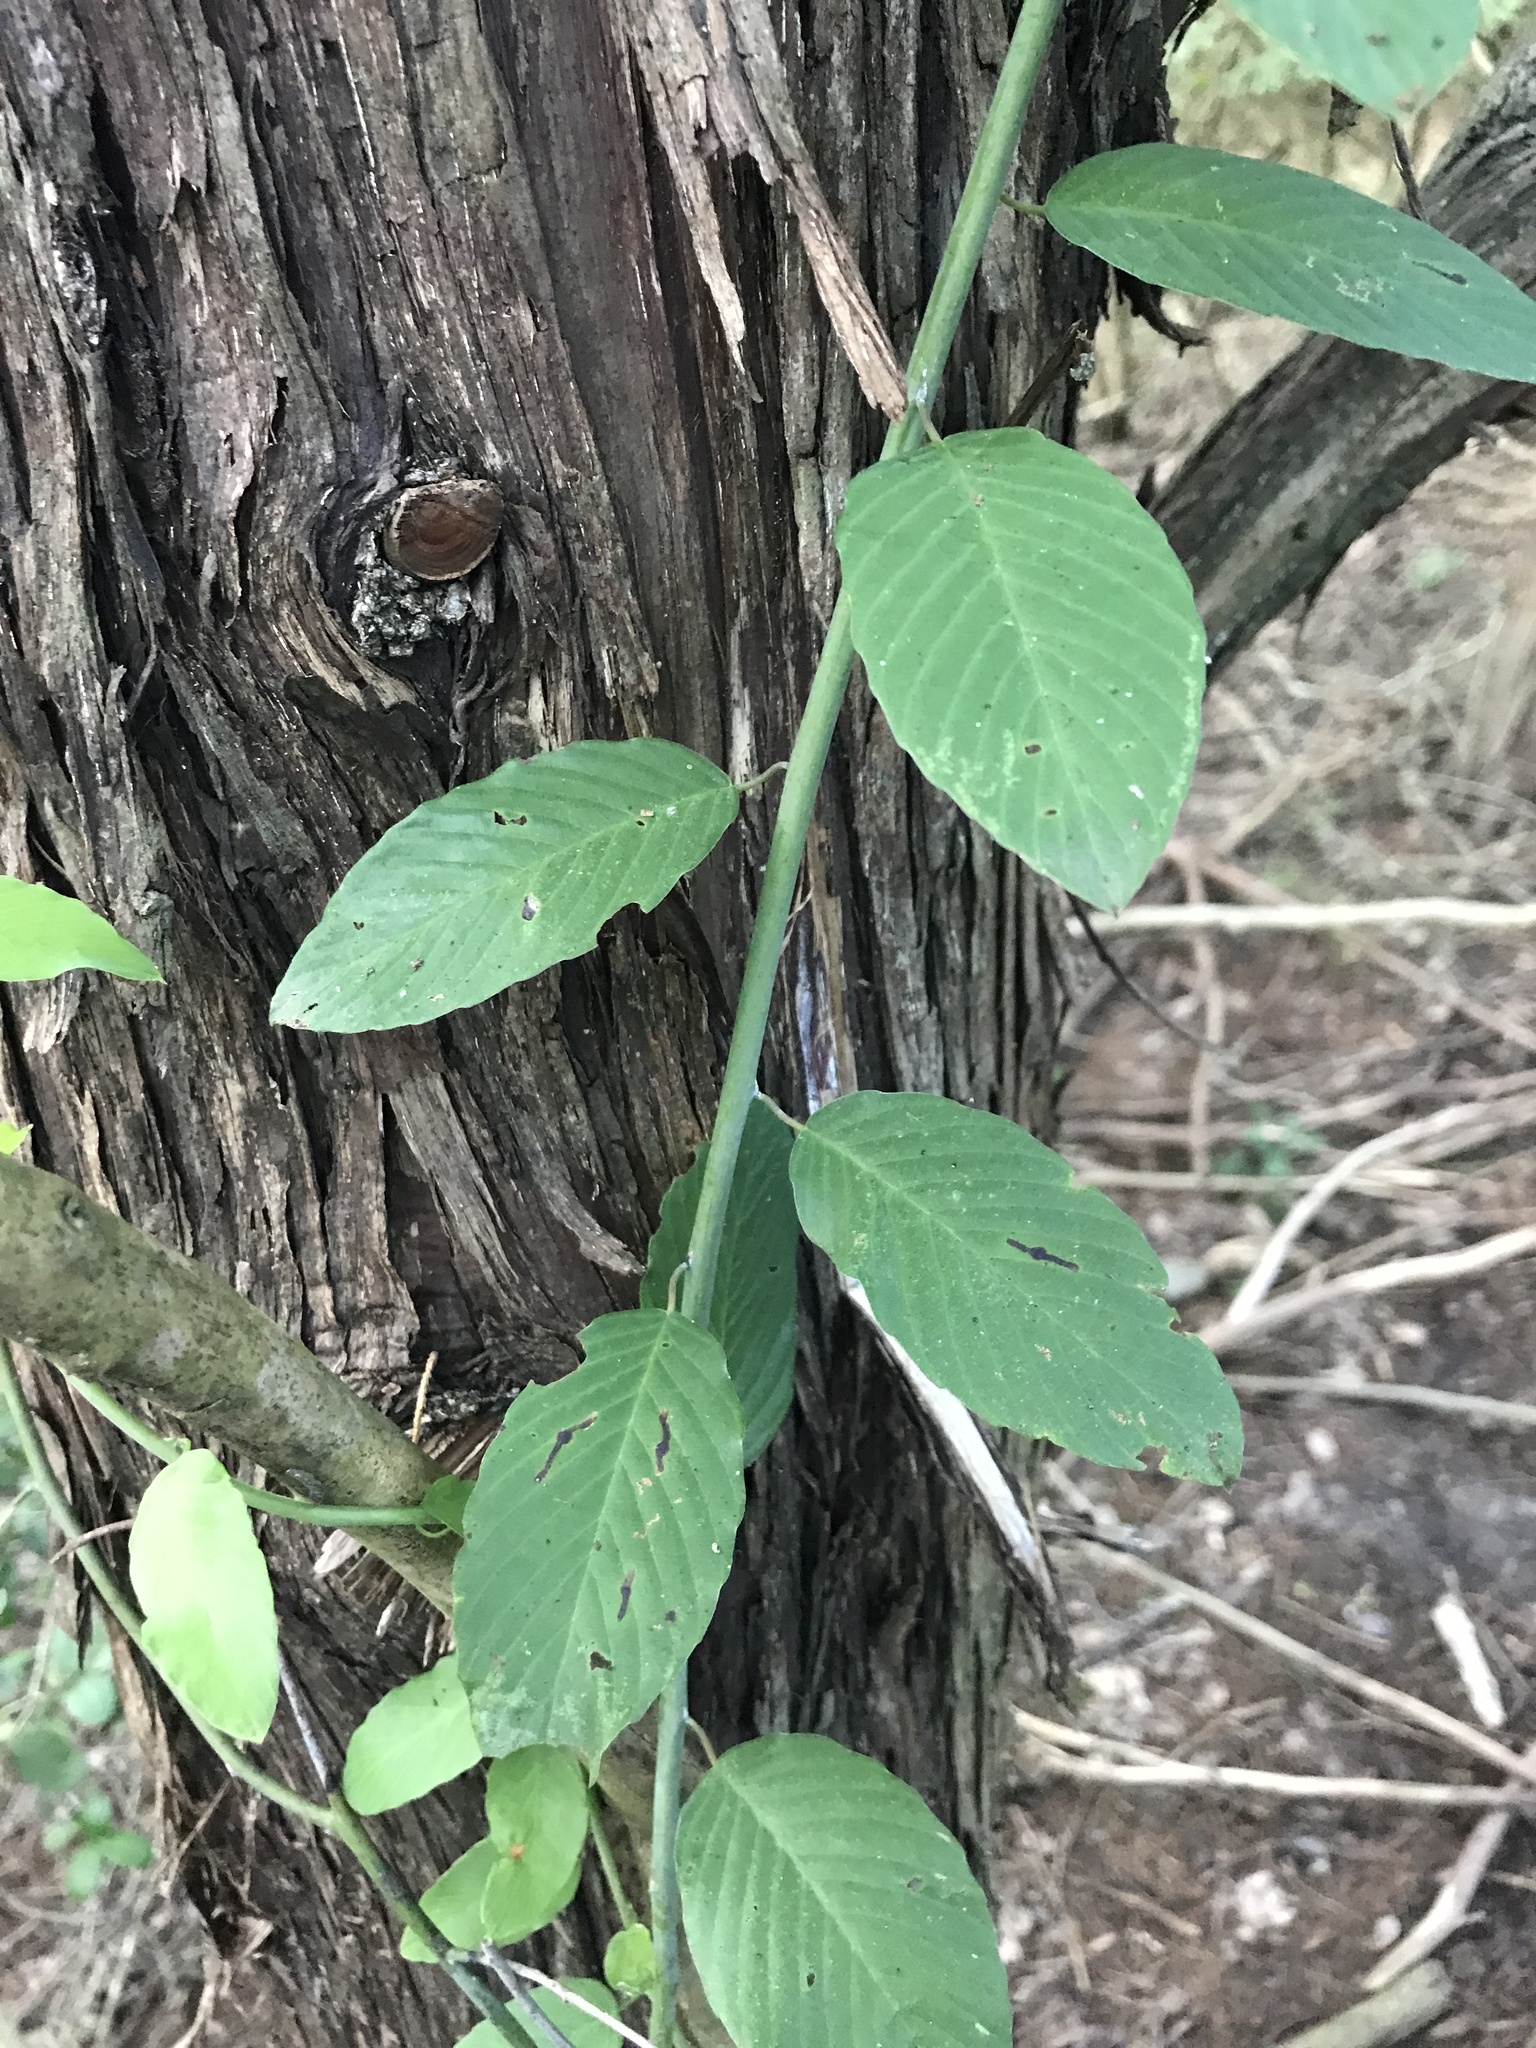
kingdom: Plantae
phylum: Tracheophyta
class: Magnoliopsida
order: Rosales
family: Rhamnaceae
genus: Berchemia
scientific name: Berchemia scandens
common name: Supplejack
